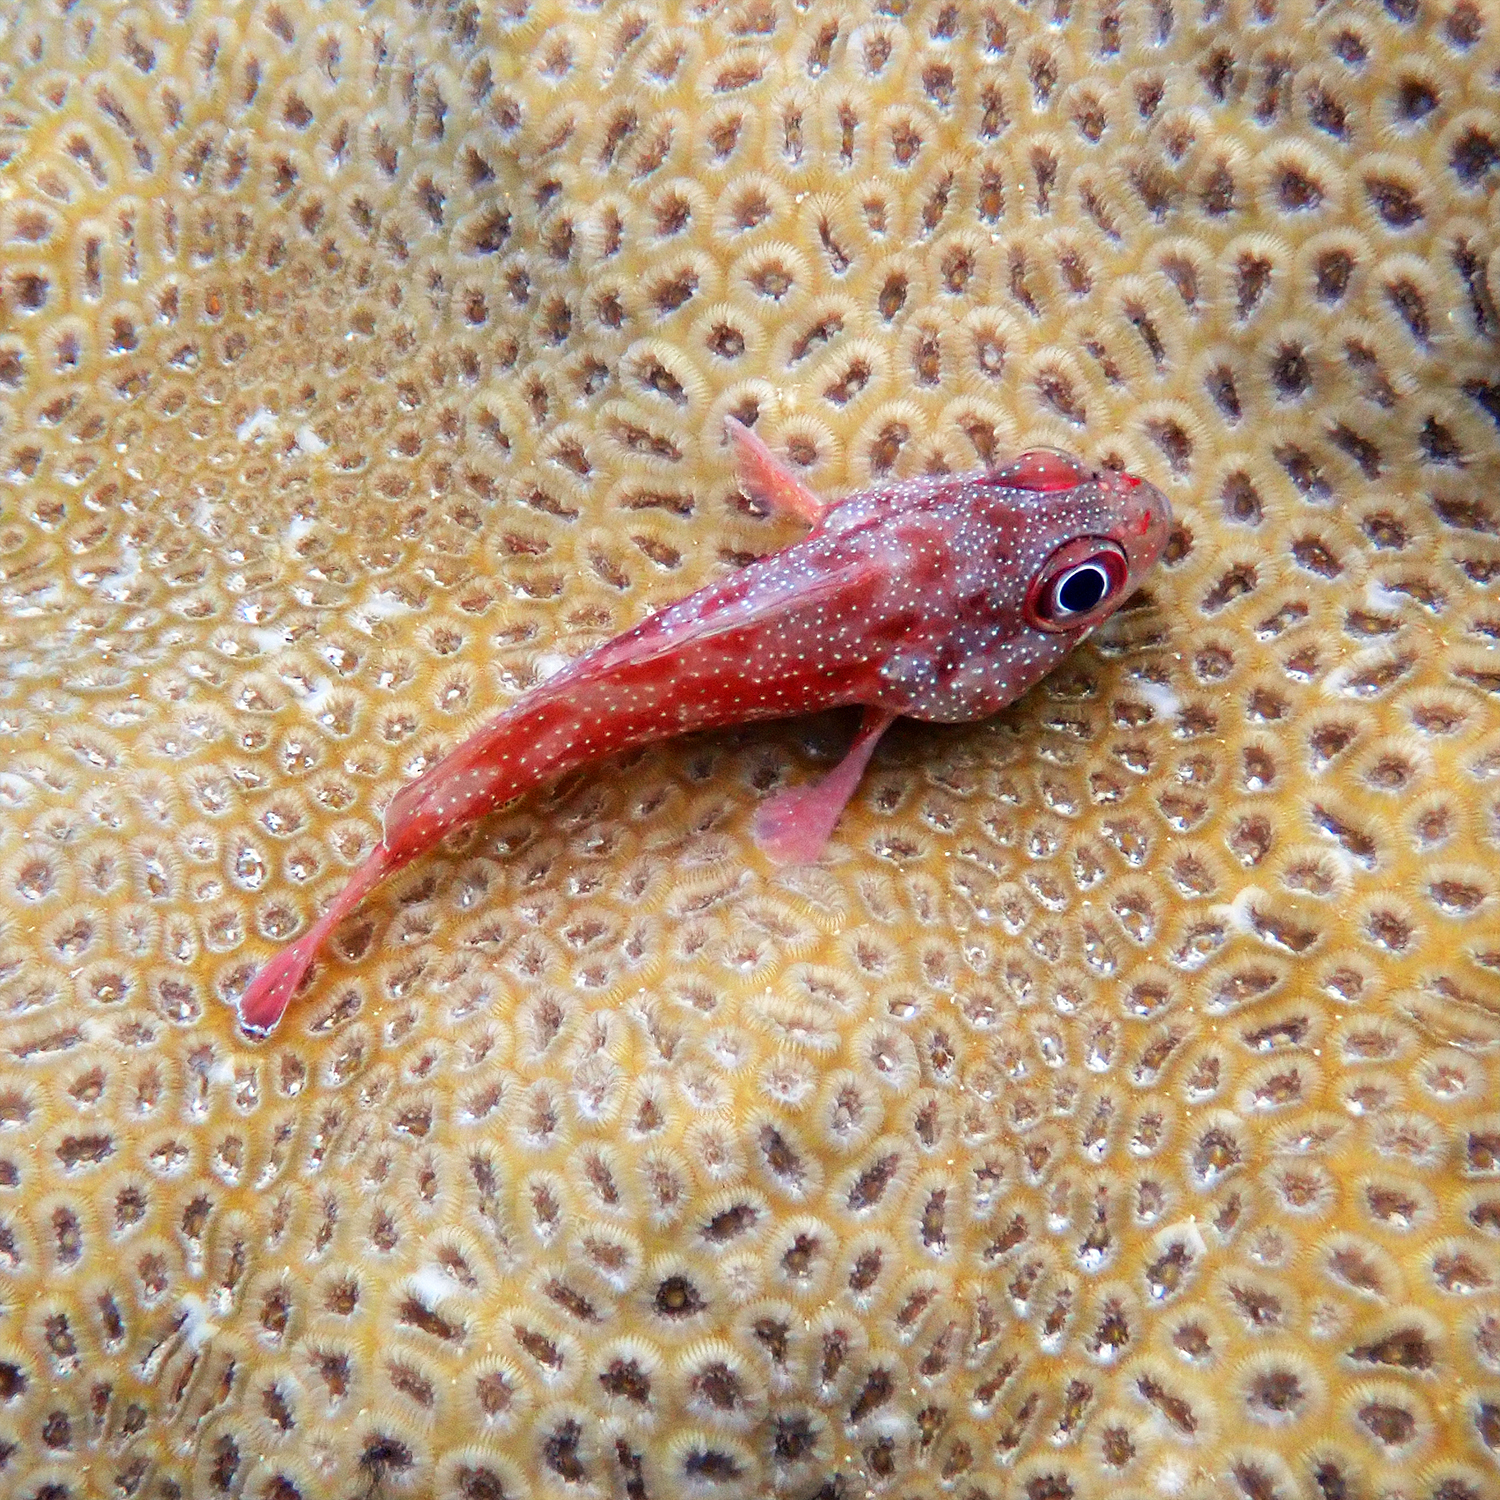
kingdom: Animalia
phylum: Chordata
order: Perciformes
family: Serranidae
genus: Trachypoma
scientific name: Trachypoma macracanthus
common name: Toadstool grouper
